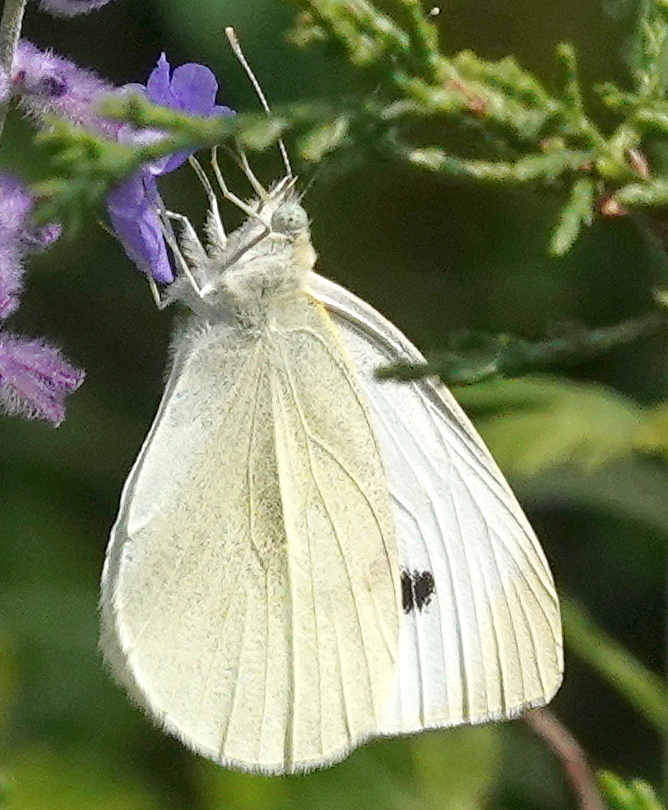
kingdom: Animalia
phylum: Arthropoda
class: Insecta
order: Lepidoptera
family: Pieridae
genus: Pieris
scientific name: Pieris rapae
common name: Small white
